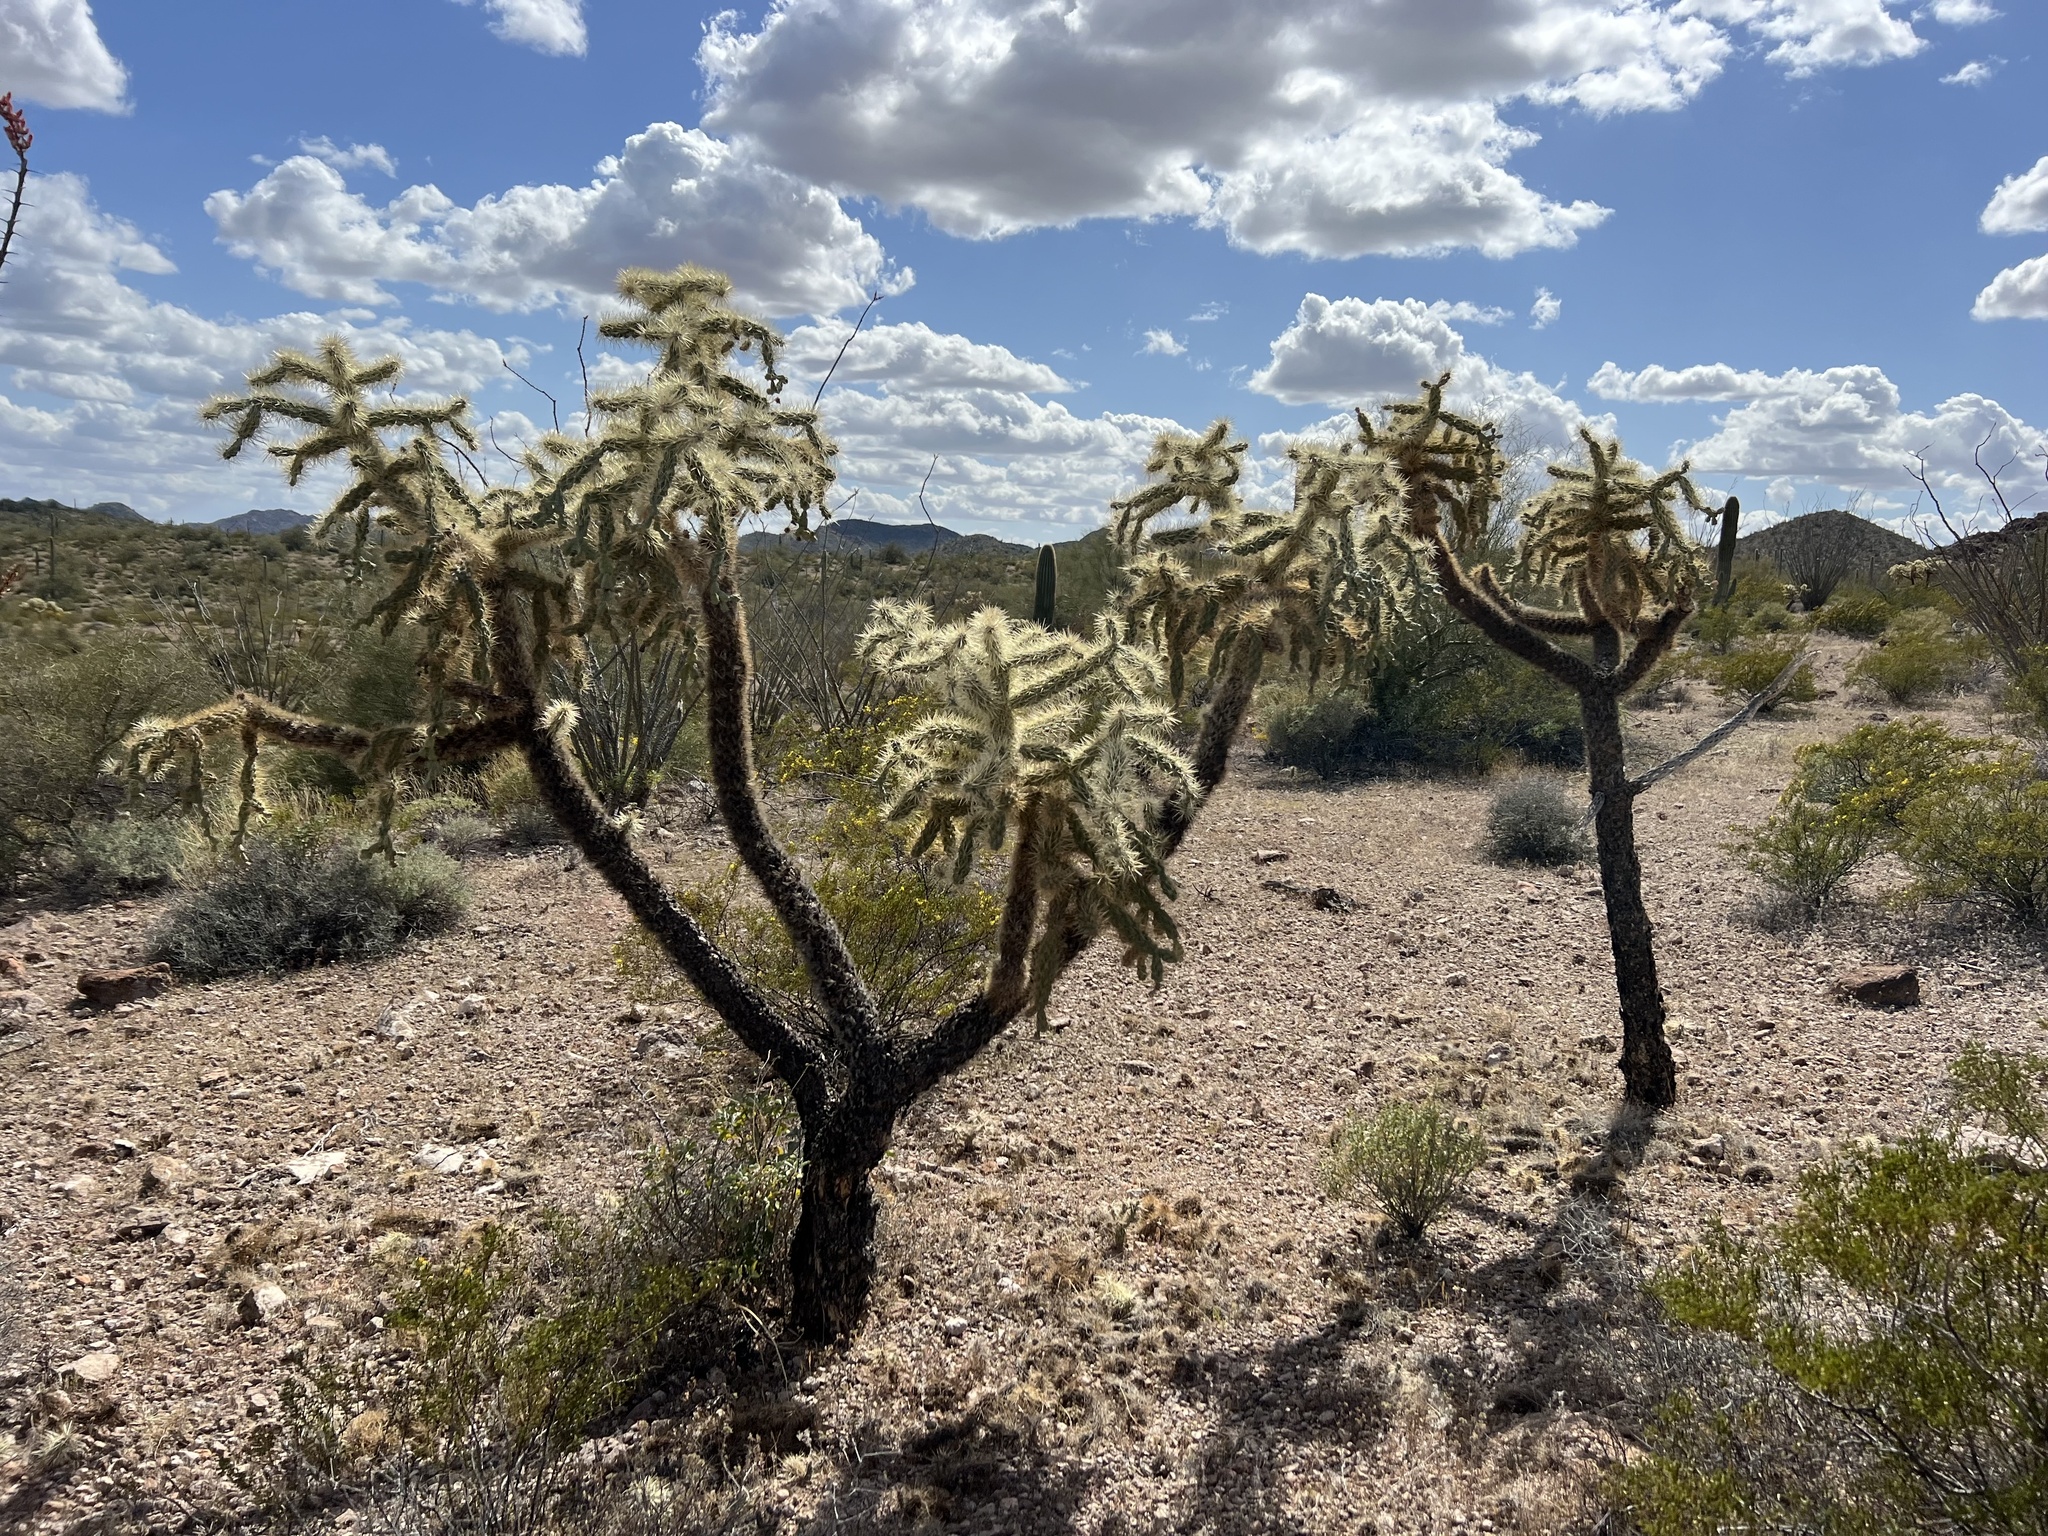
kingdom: Plantae
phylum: Tracheophyta
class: Magnoliopsida
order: Caryophyllales
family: Cactaceae
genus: Cylindropuntia
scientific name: Cylindropuntia fulgida
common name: Jumping cholla
